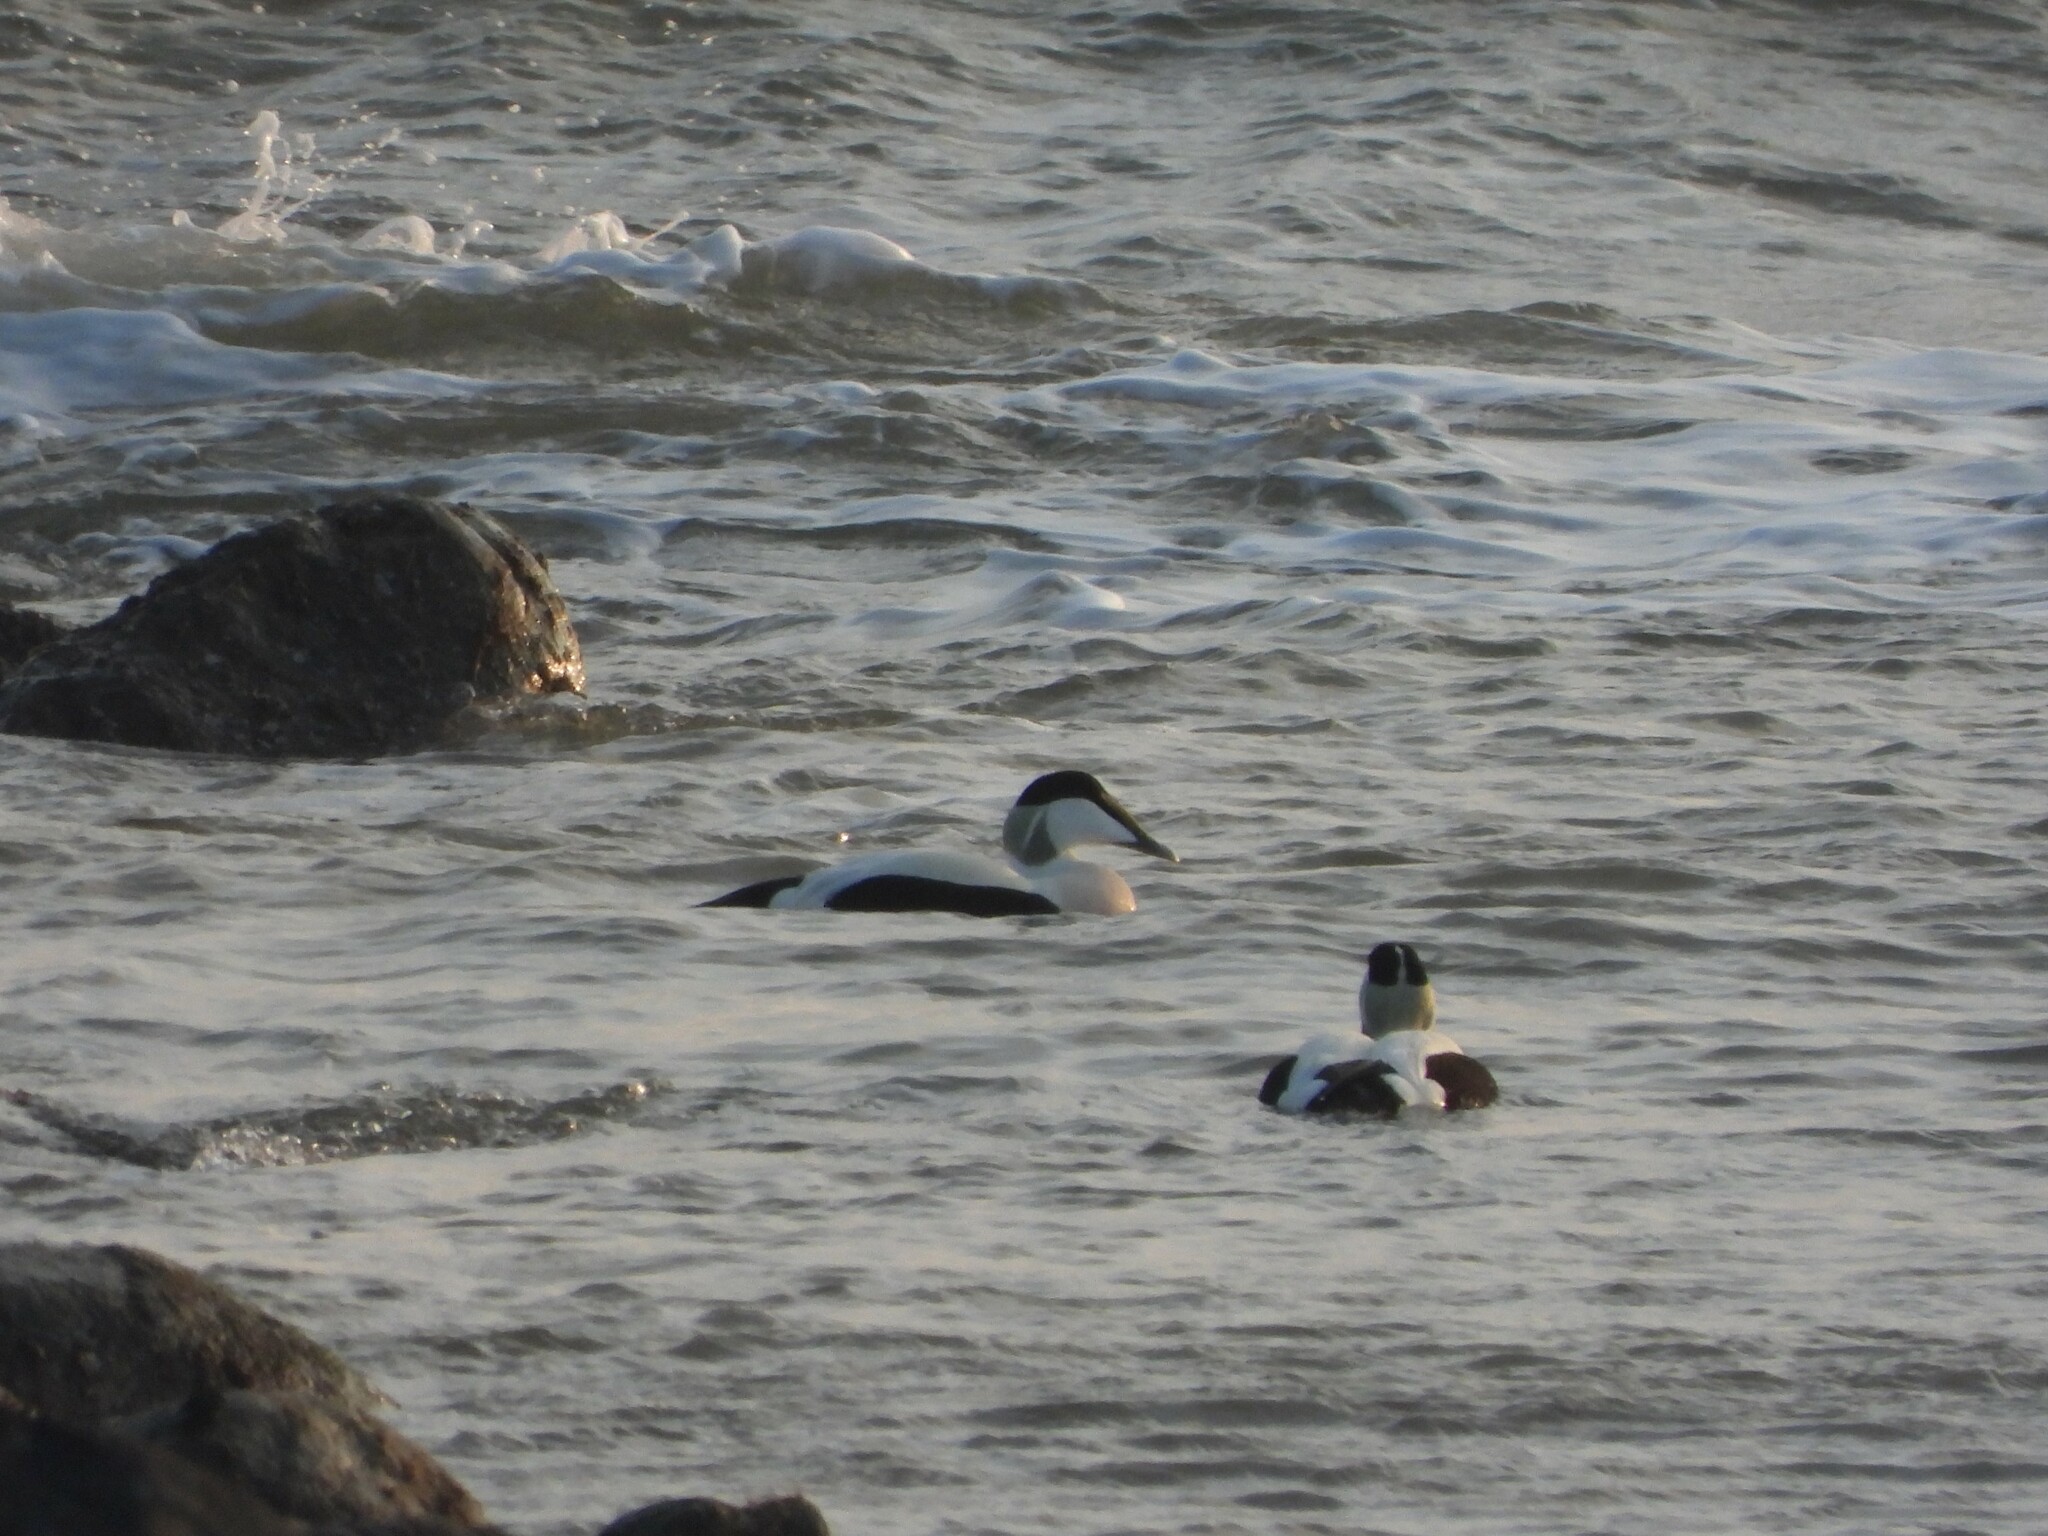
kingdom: Animalia
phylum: Chordata
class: Aves
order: Anseriformes
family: Anatidae
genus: Somateria
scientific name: Somateria mollissima
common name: Common eider
